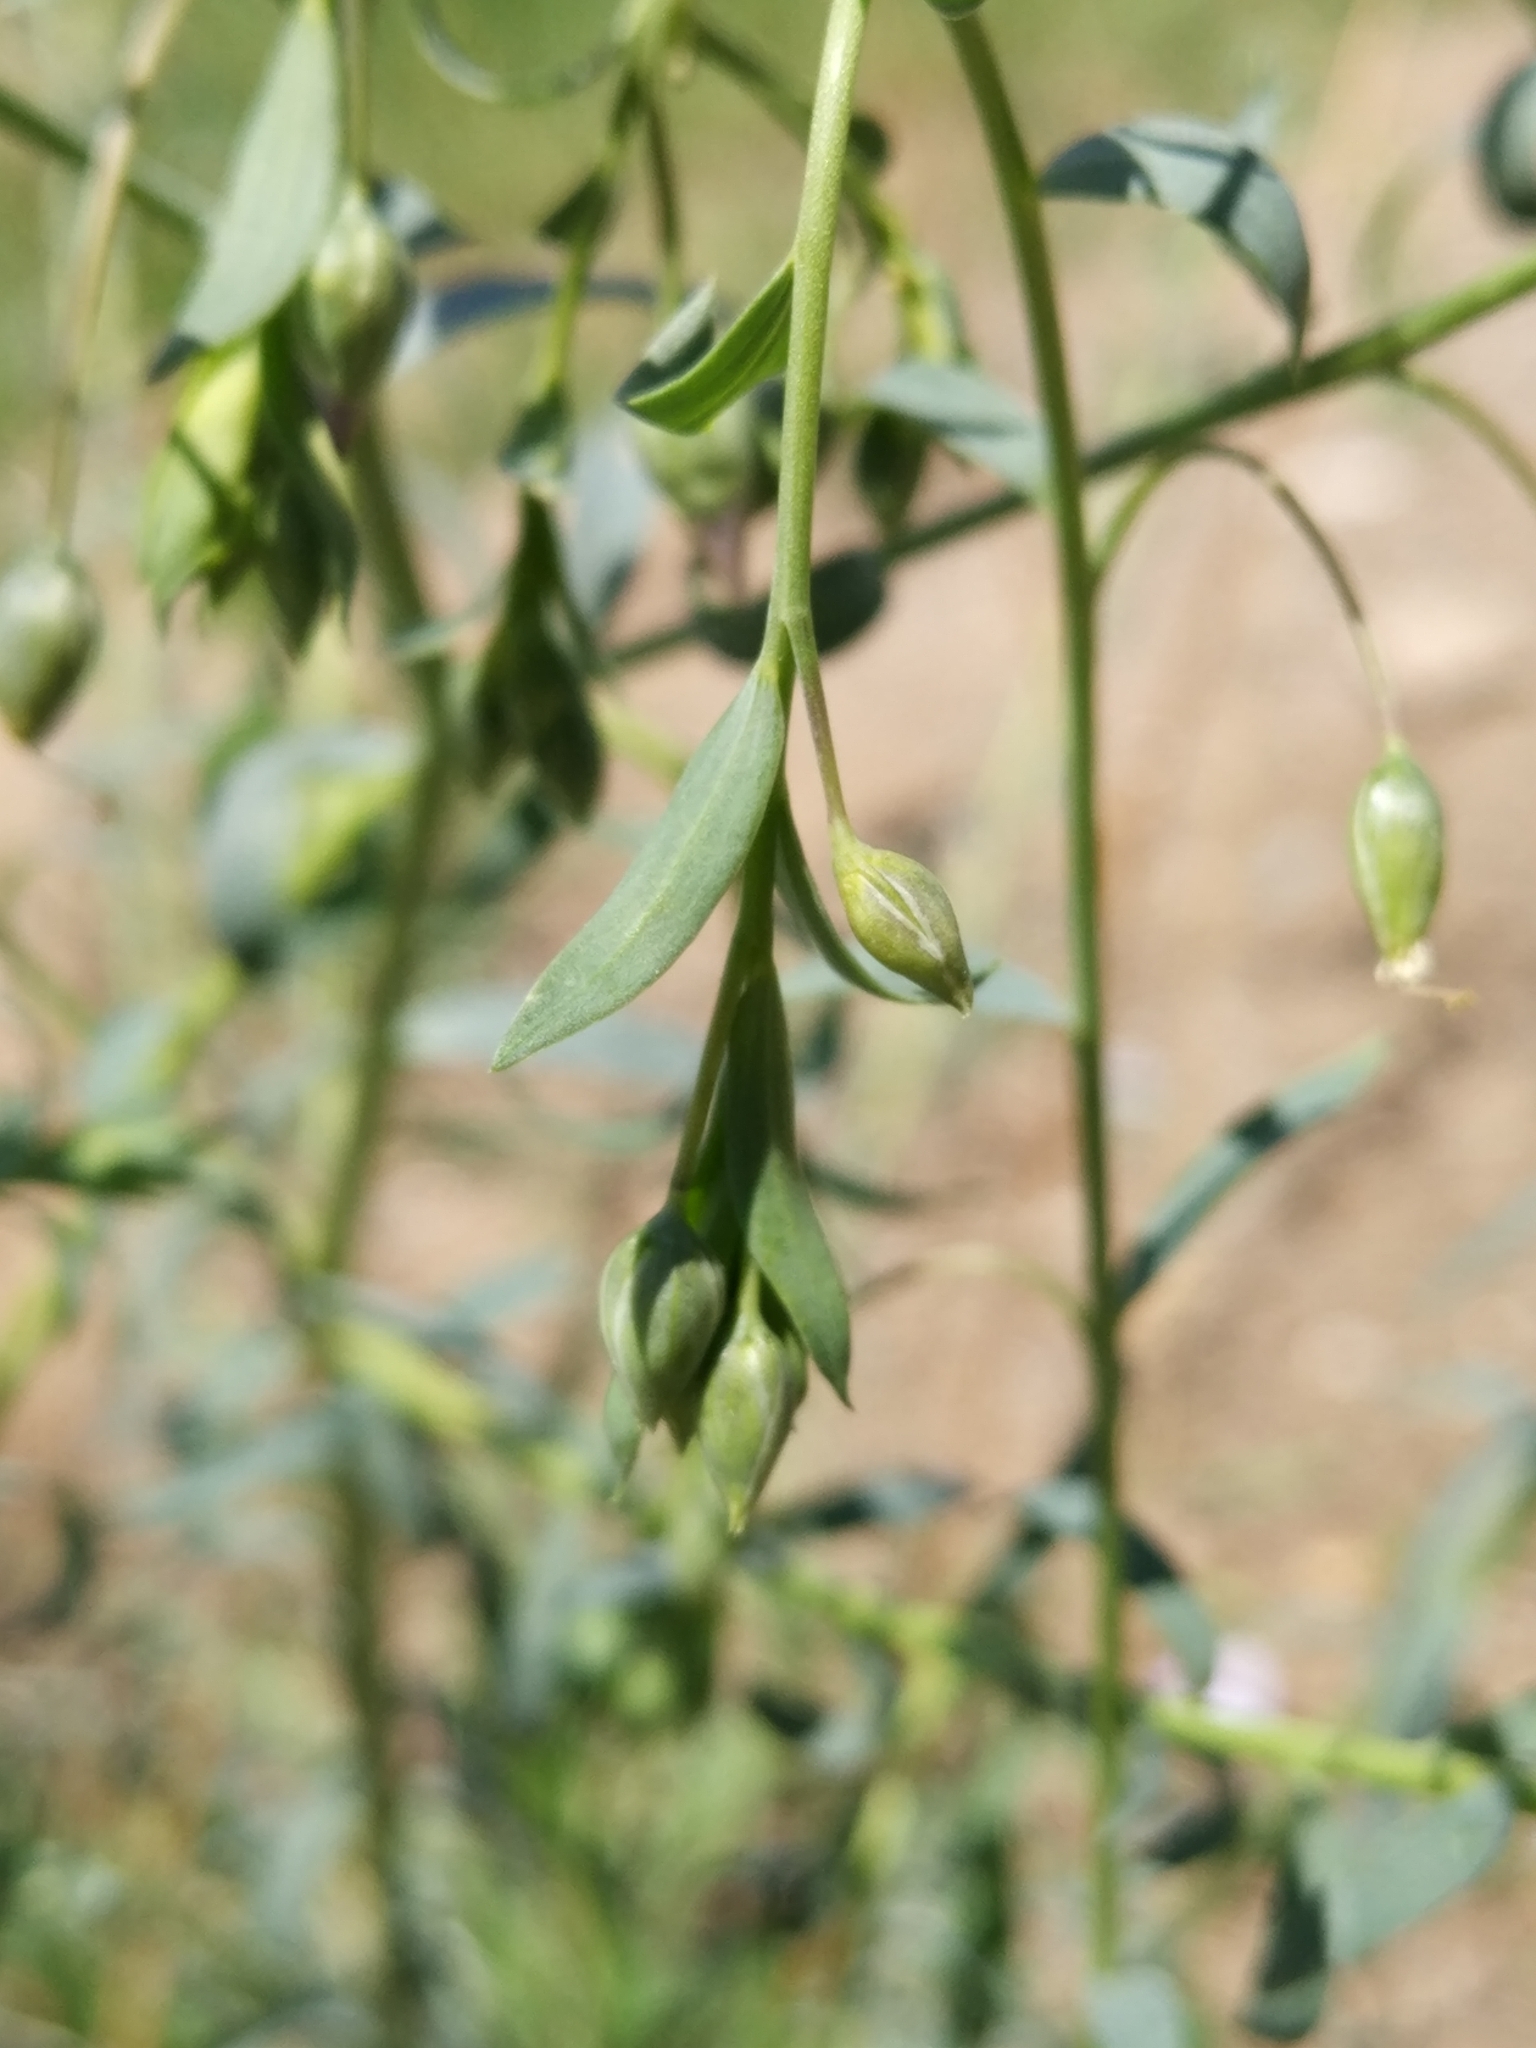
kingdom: Plantae
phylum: Tracheophyta
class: Magnoliopsida
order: Malpighiales
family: Linaceae
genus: Linum
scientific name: Linum austriacum
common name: Austrian flax
